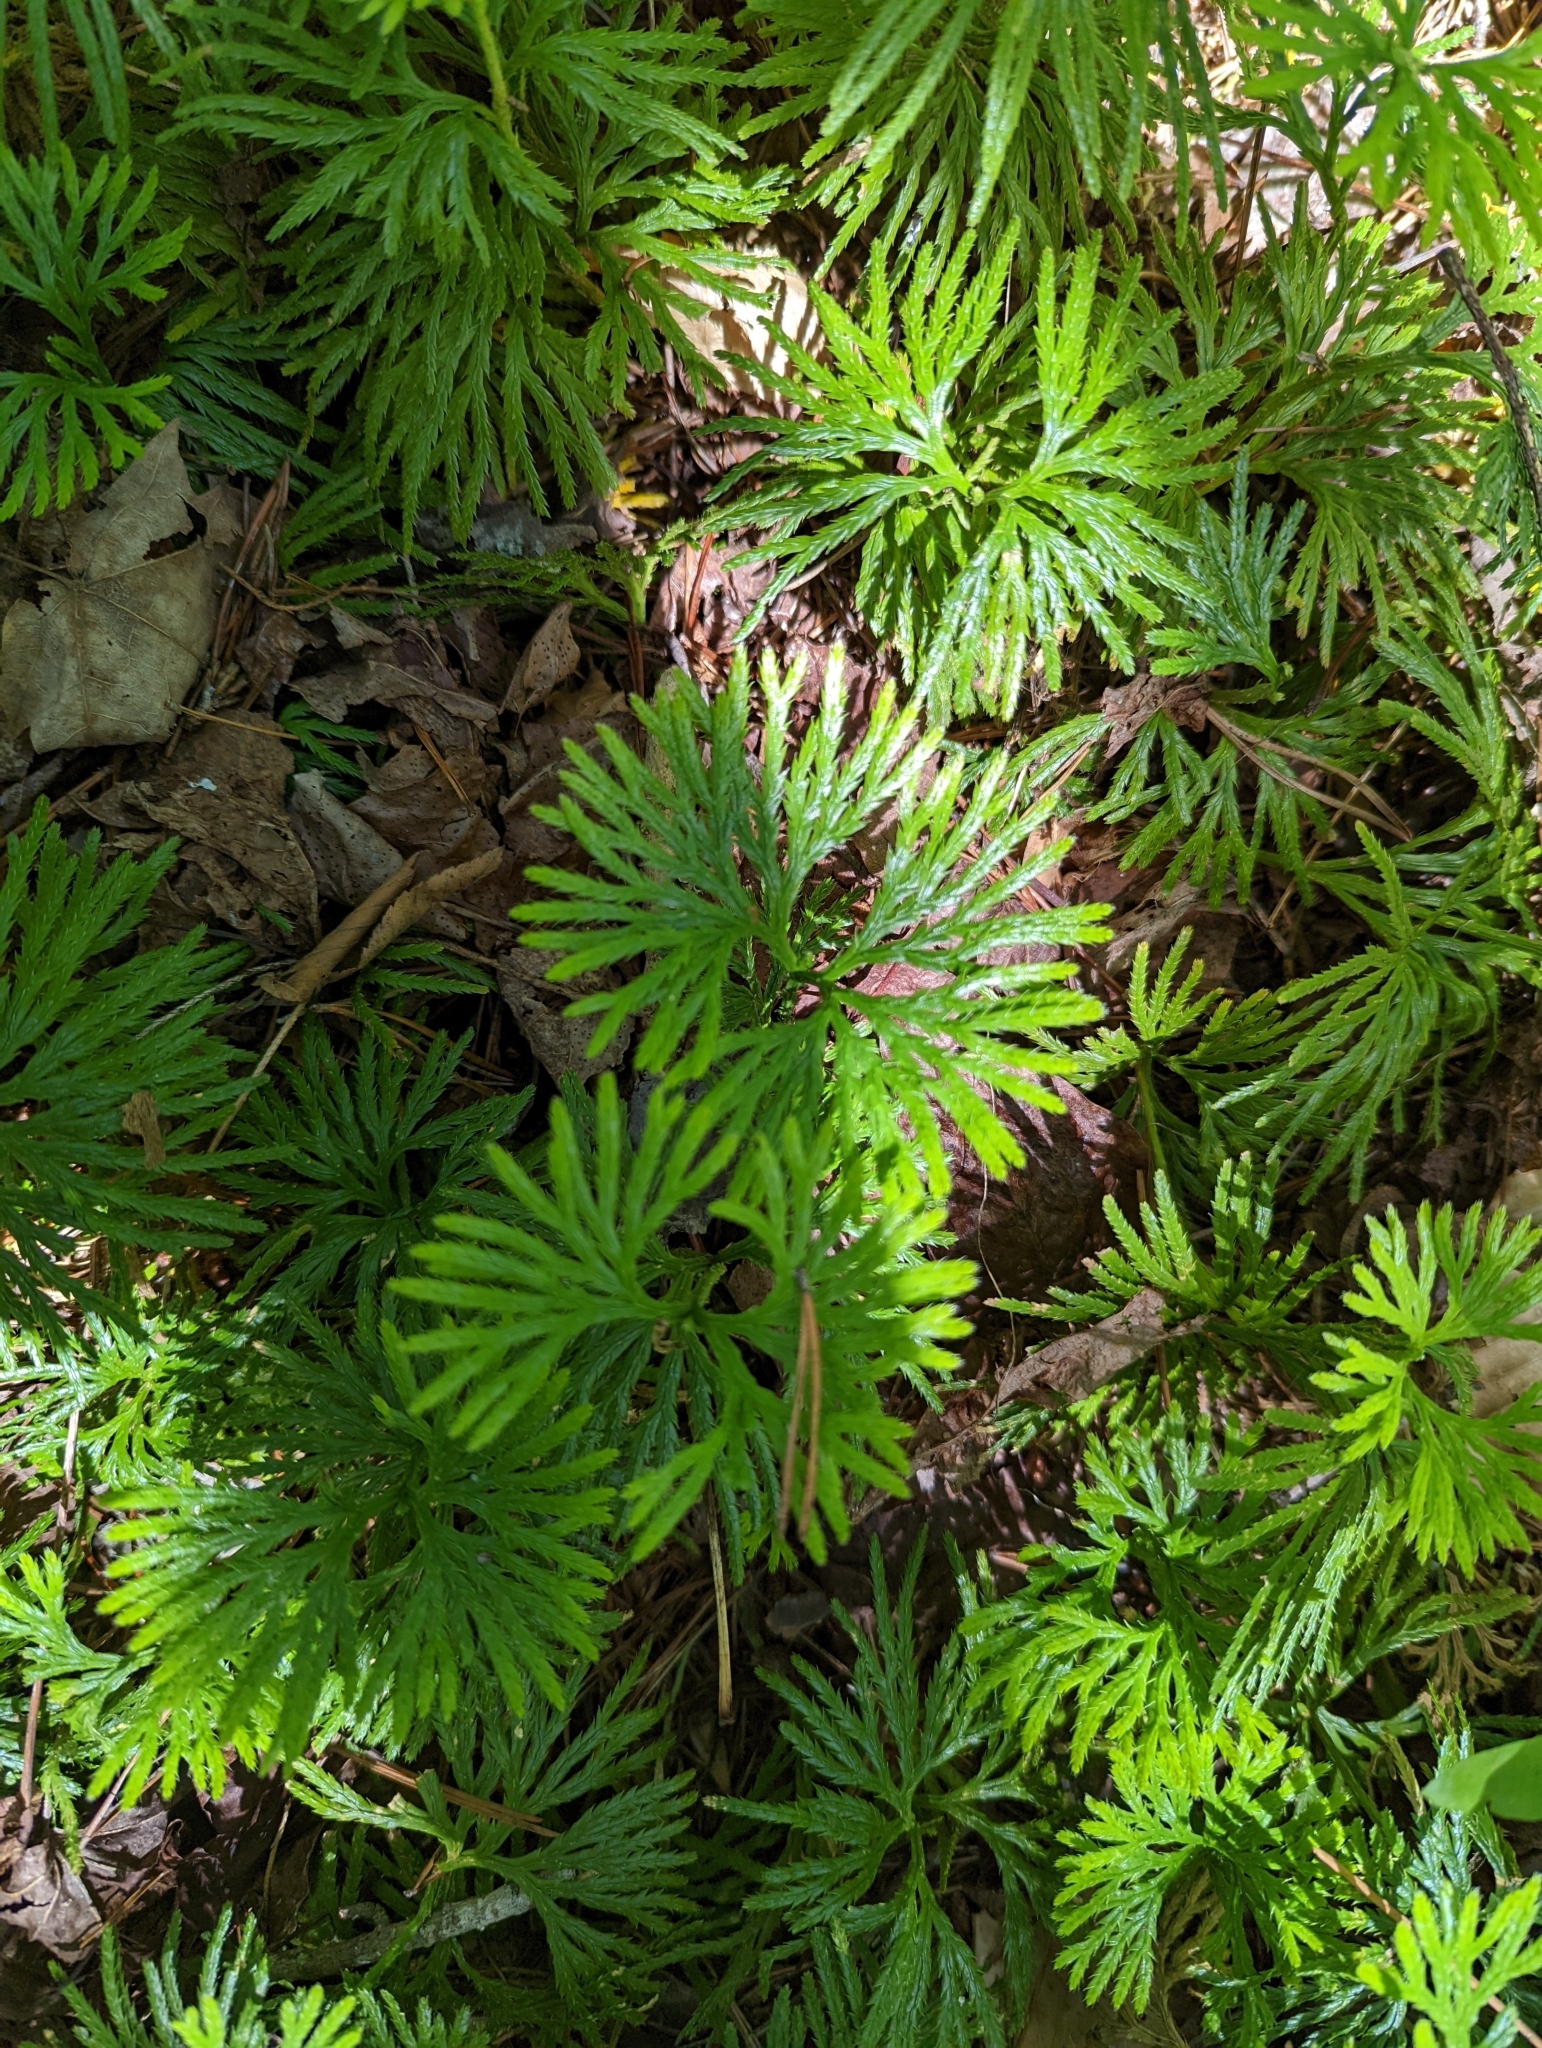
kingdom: Plantae
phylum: Tracheophyta
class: Lycopodiopsida
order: Lycopodiales
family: Lycopodiaceae
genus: Diphasiastrum
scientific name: Diphasiastrum digitatum
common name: Southern running-pine
